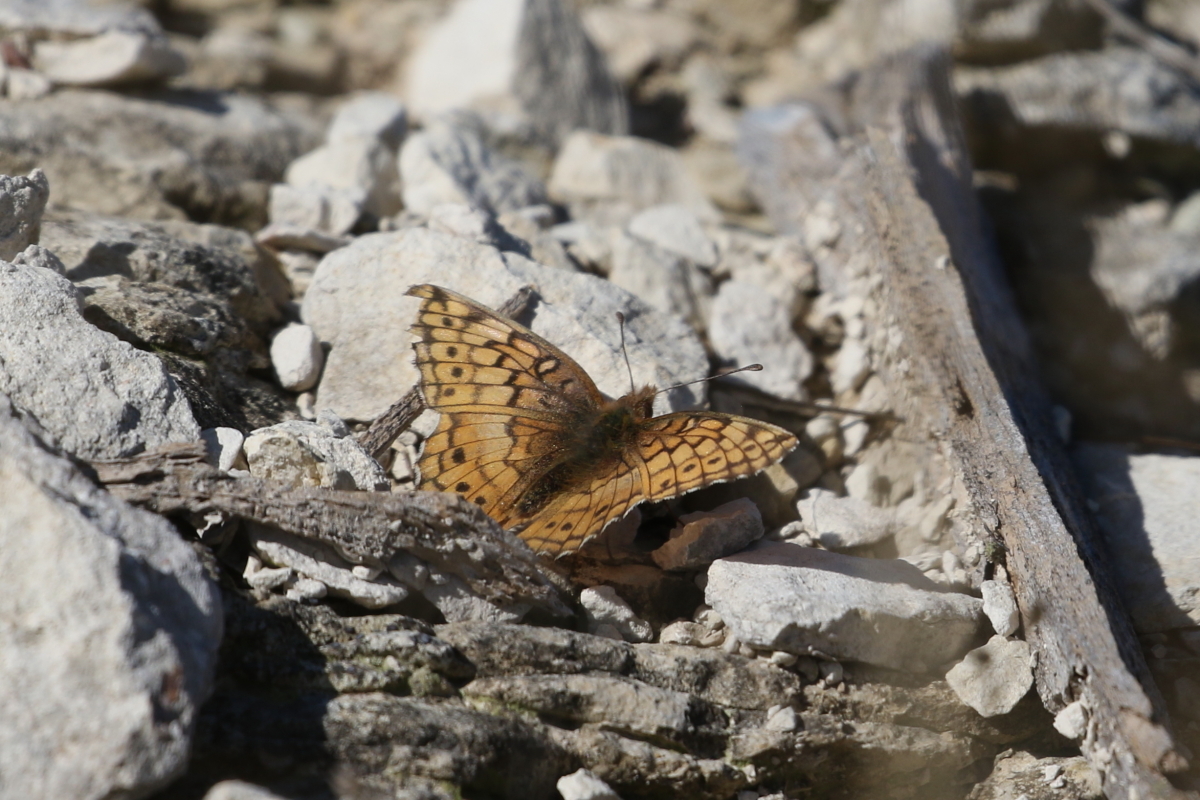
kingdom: Animalia
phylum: Arthropoda
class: Insecta
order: Lepidoptera
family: Nymphalidae
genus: Euptoieta
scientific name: Euptoieta claudia
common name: Variegated fritillary
